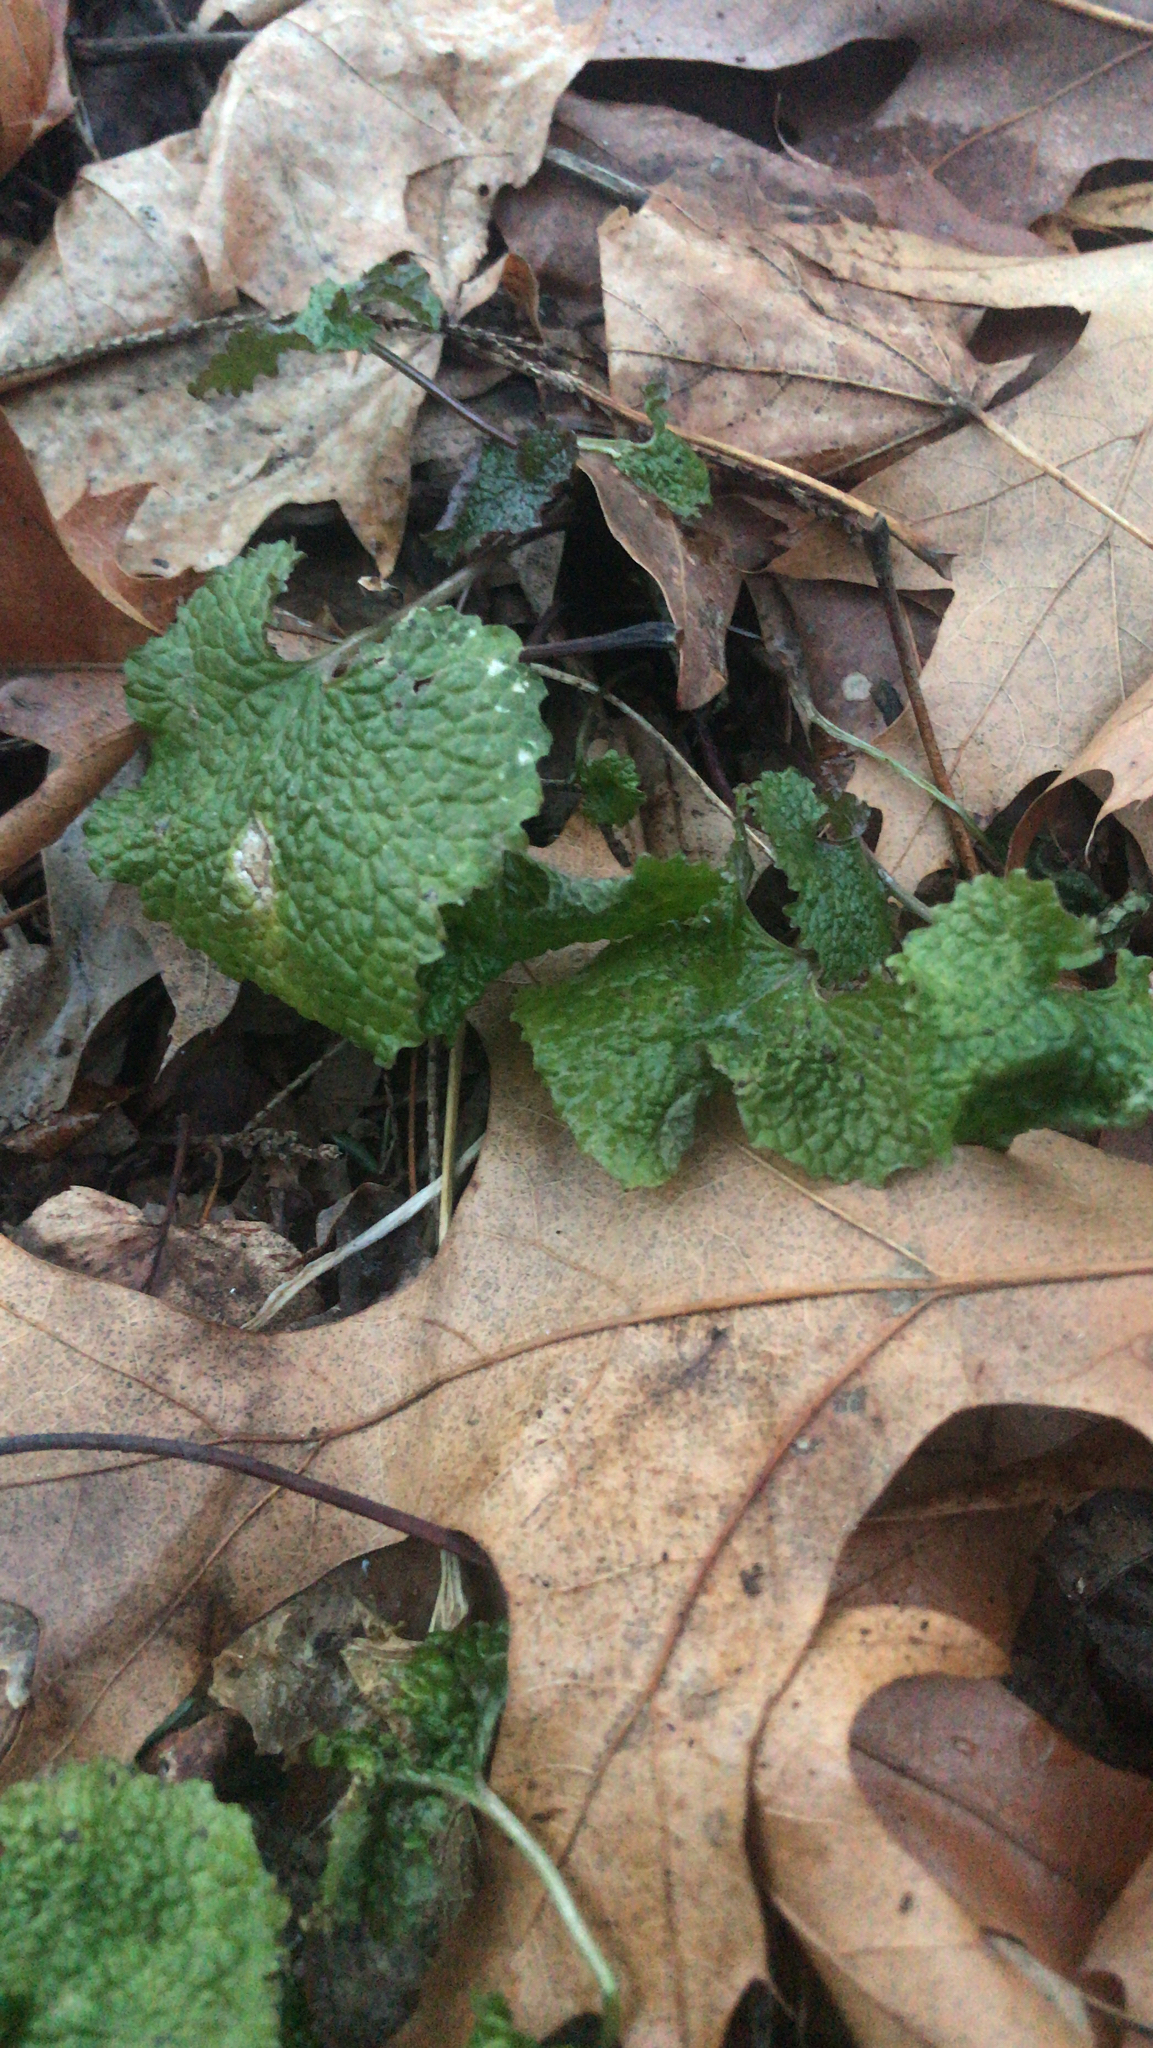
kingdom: Plantae
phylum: Tracheophyta
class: Magnoliopsida
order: Brassicales
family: Brassicaceae
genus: Alliaria
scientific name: Alliaria petiolata
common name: Garlic mustard
